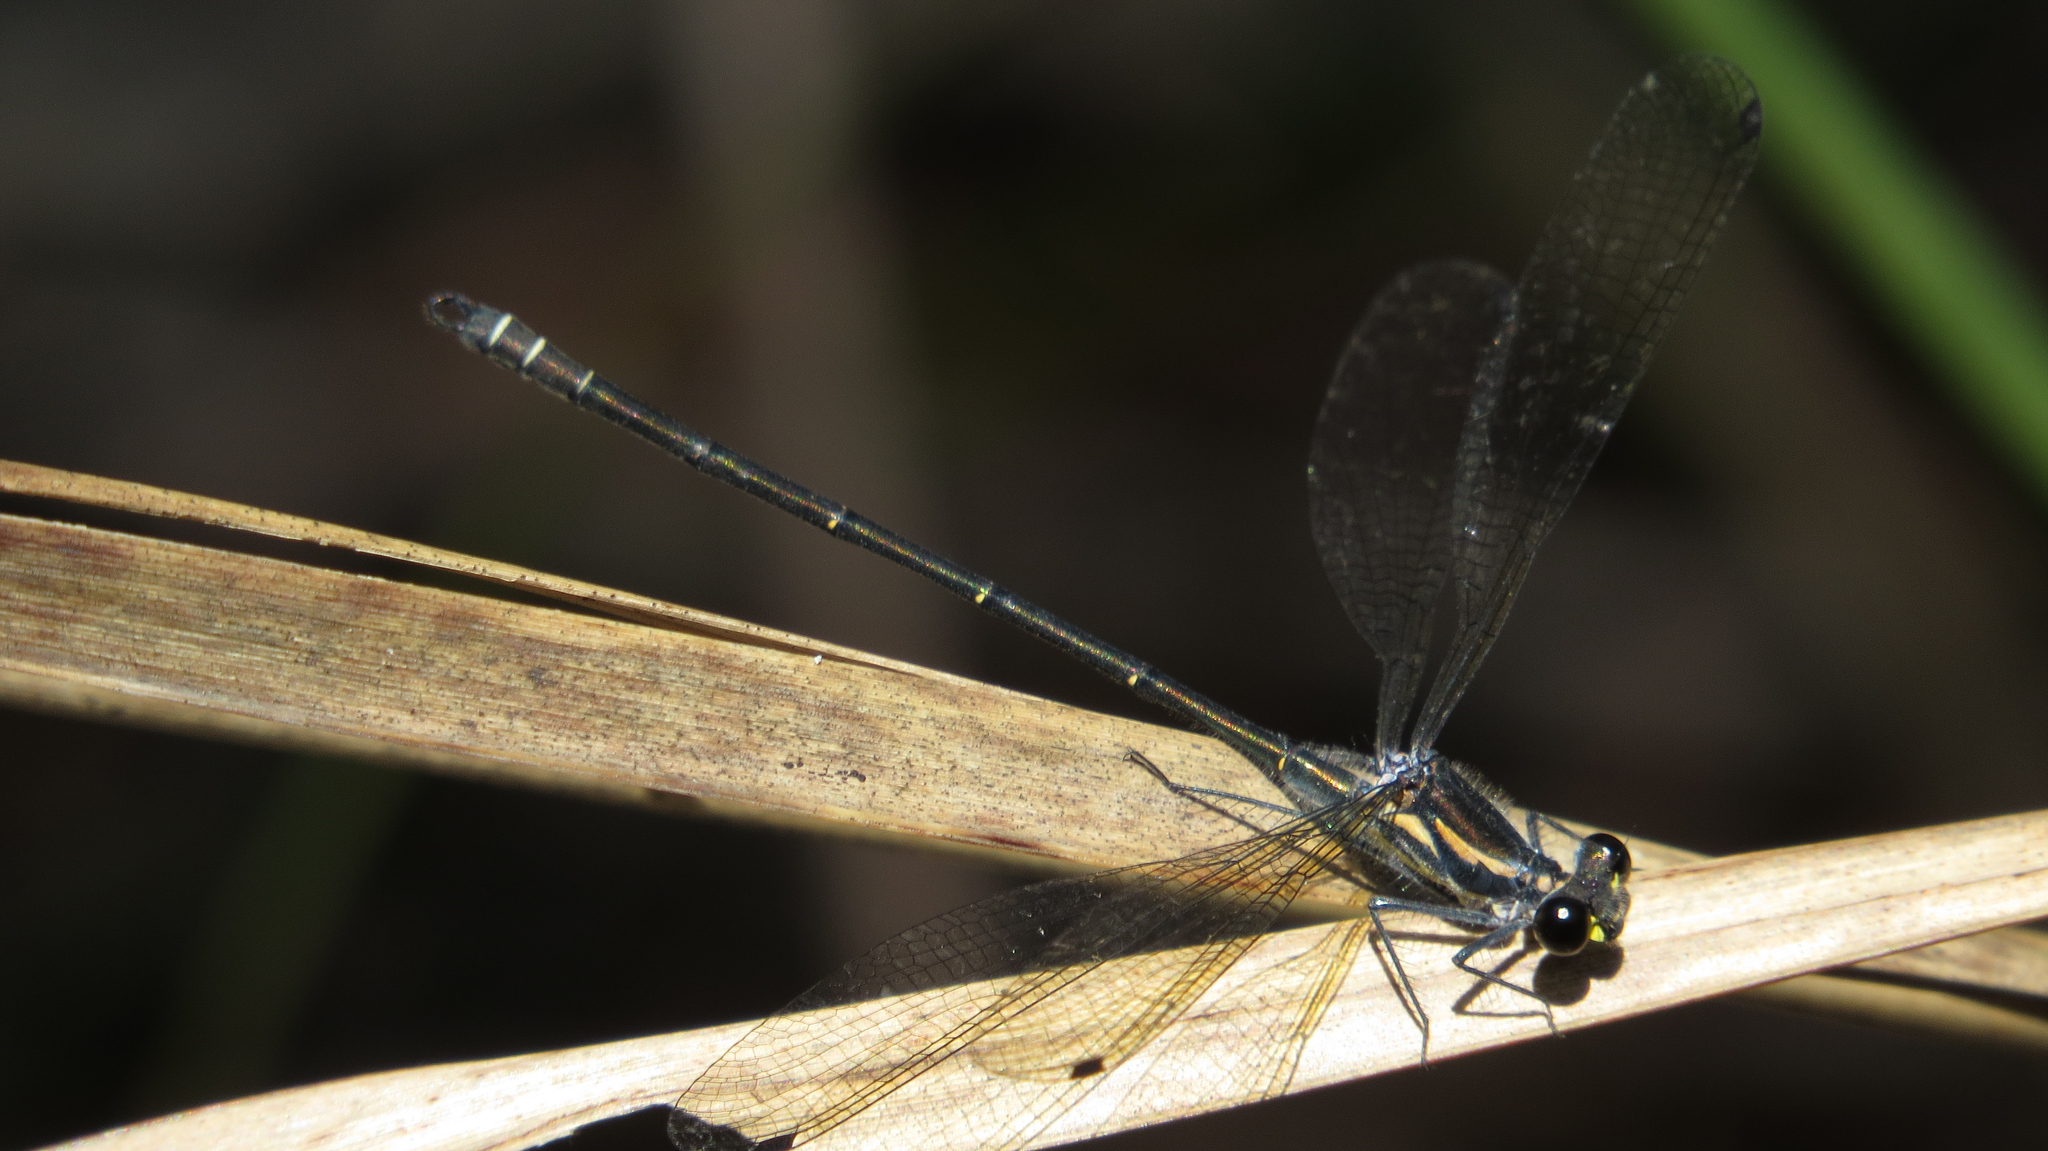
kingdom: Animalia
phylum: Arthropoda
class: Insecta
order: Odonata
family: Argiolestidae
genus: Austroargiolestes
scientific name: Austroargiolestes icteromelas
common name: Common flatwing
